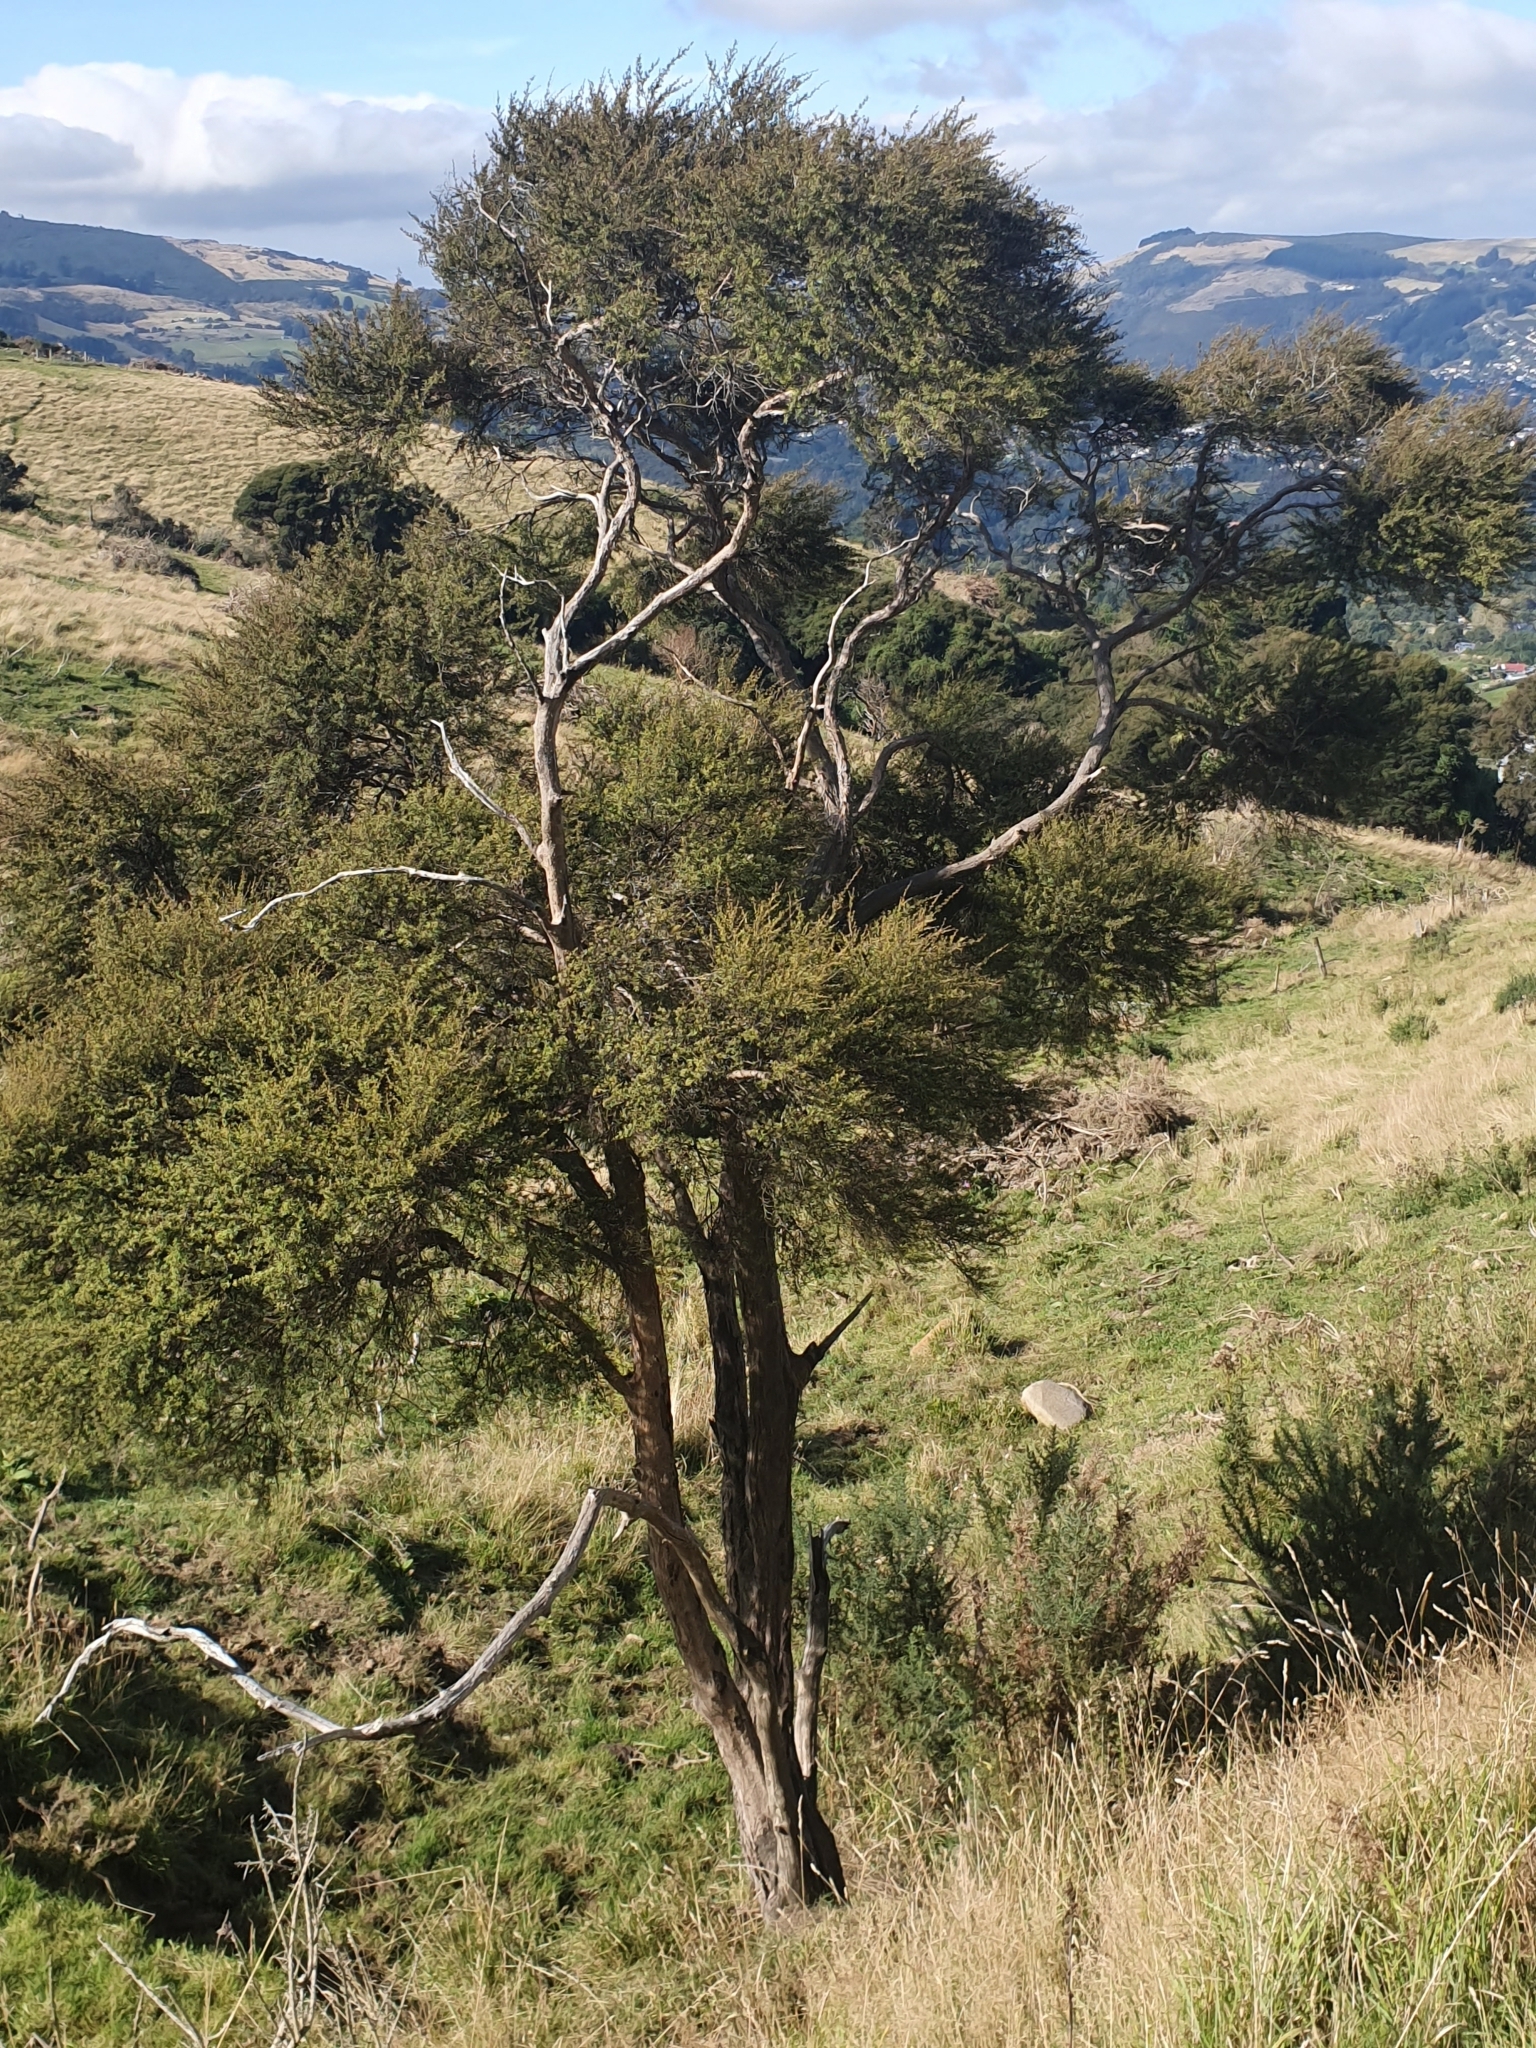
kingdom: Plantae
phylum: Tracheophyta
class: Magnoliopsida
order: Myrtales
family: Myrtaceae
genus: Kunzea
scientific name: Kunzea robusta
